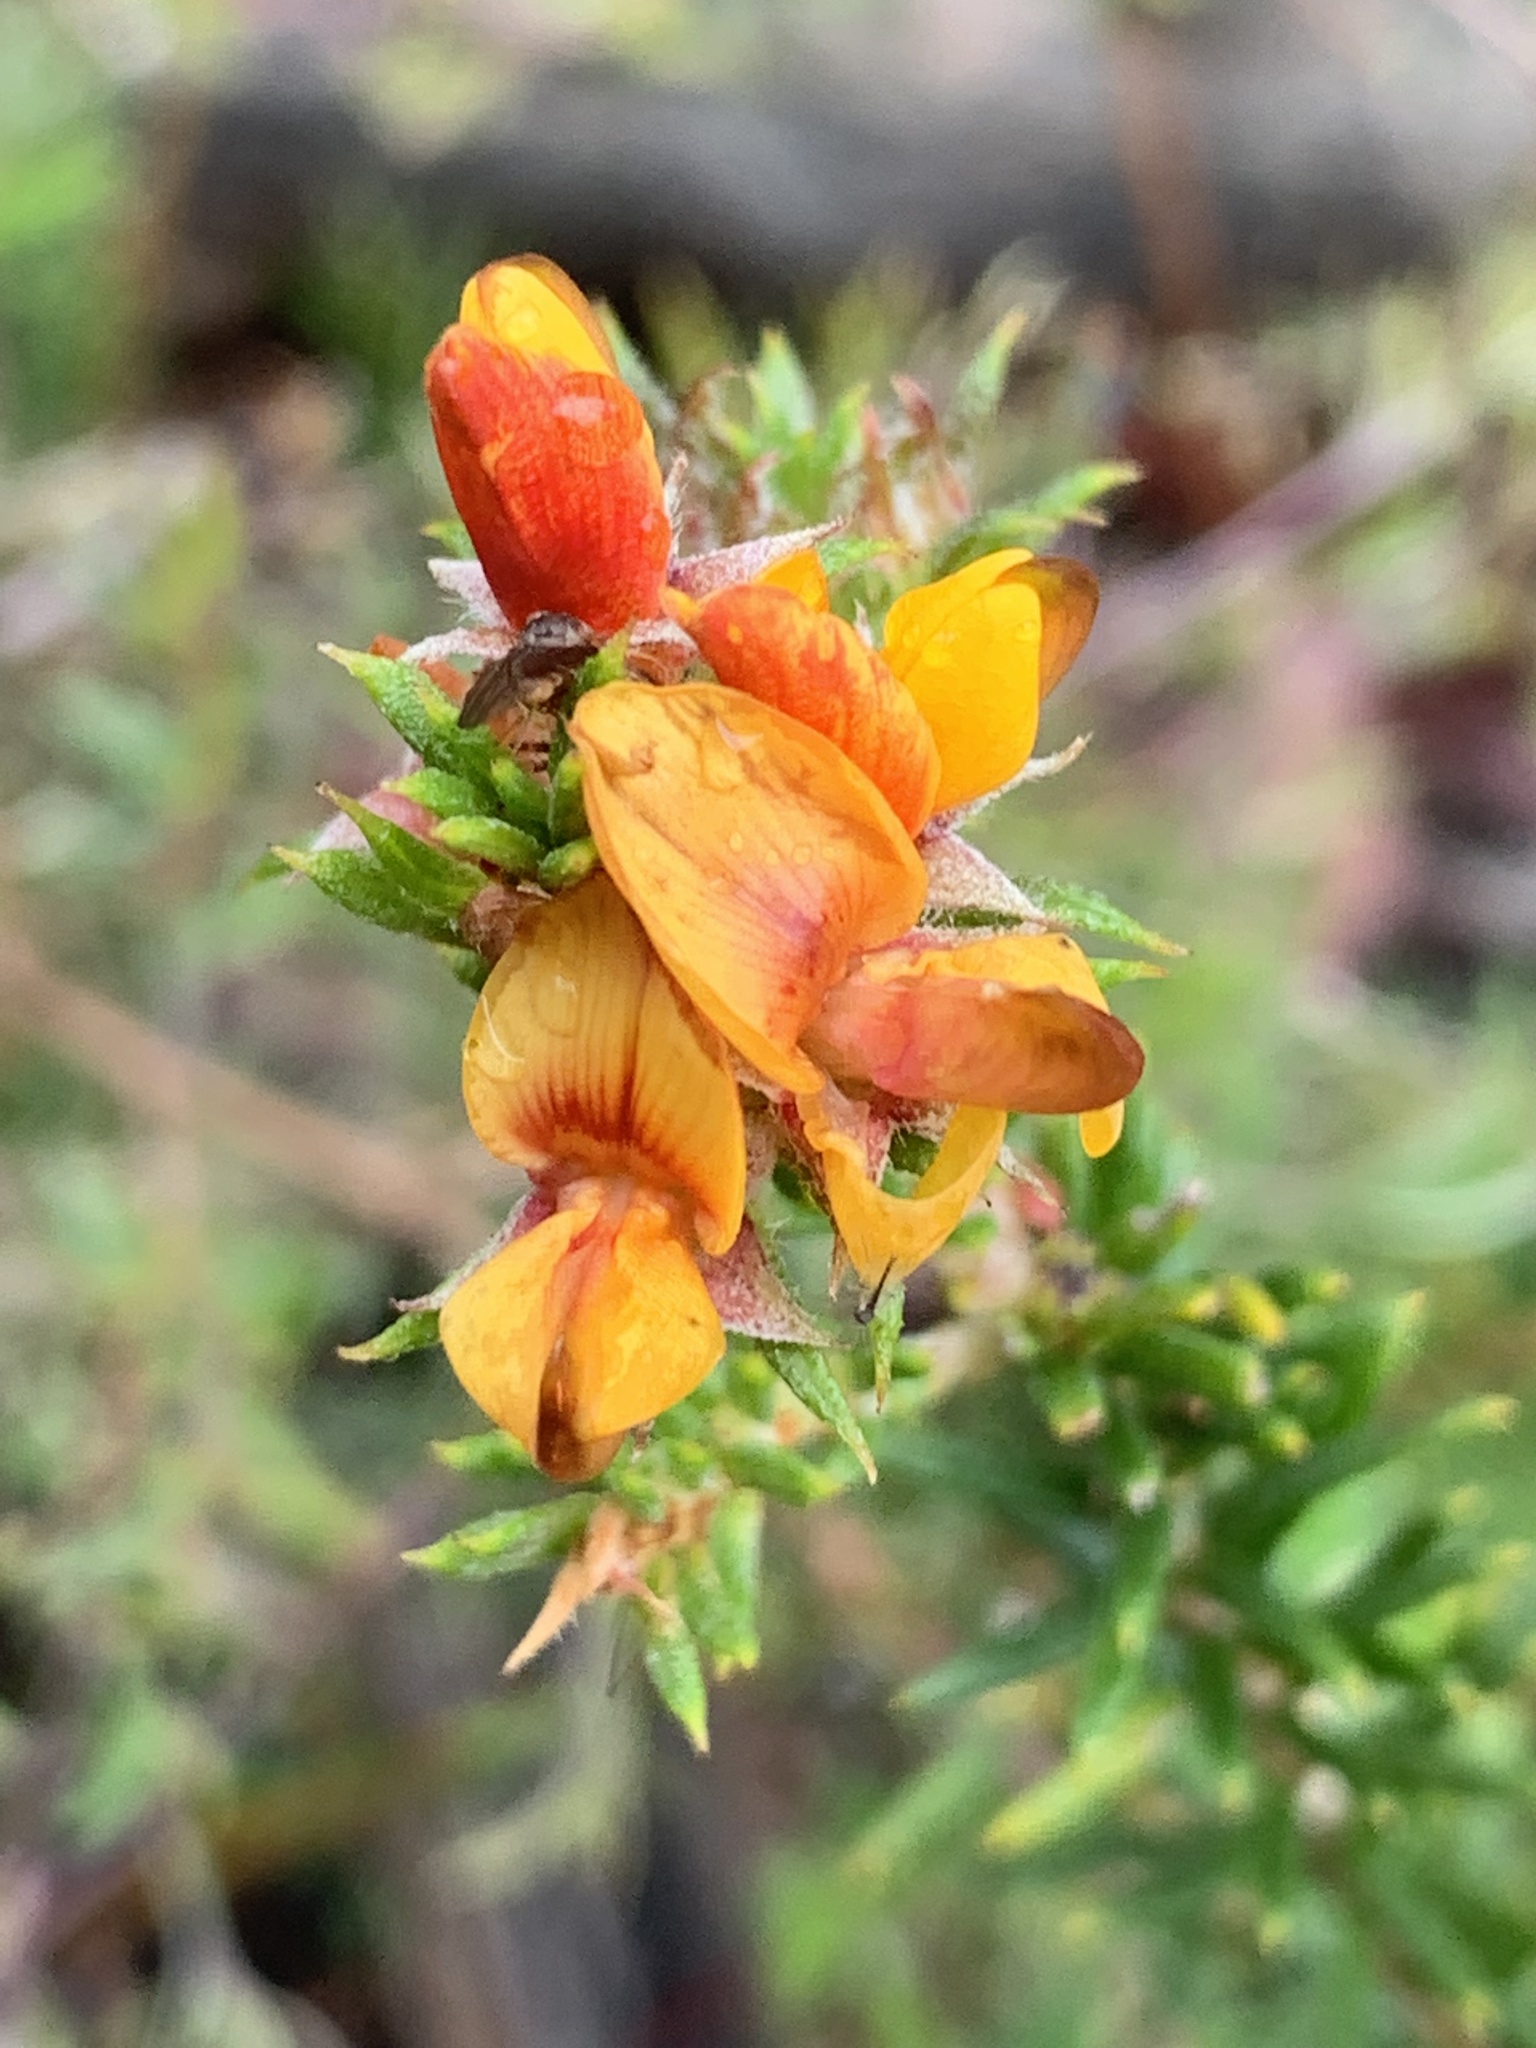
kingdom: Plantae
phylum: Tracheophyta
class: Magnoliopsida
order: Fabales
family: Fabaceae
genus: Phyllota
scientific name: Phyllota squarrosa
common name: Dense phyllota
